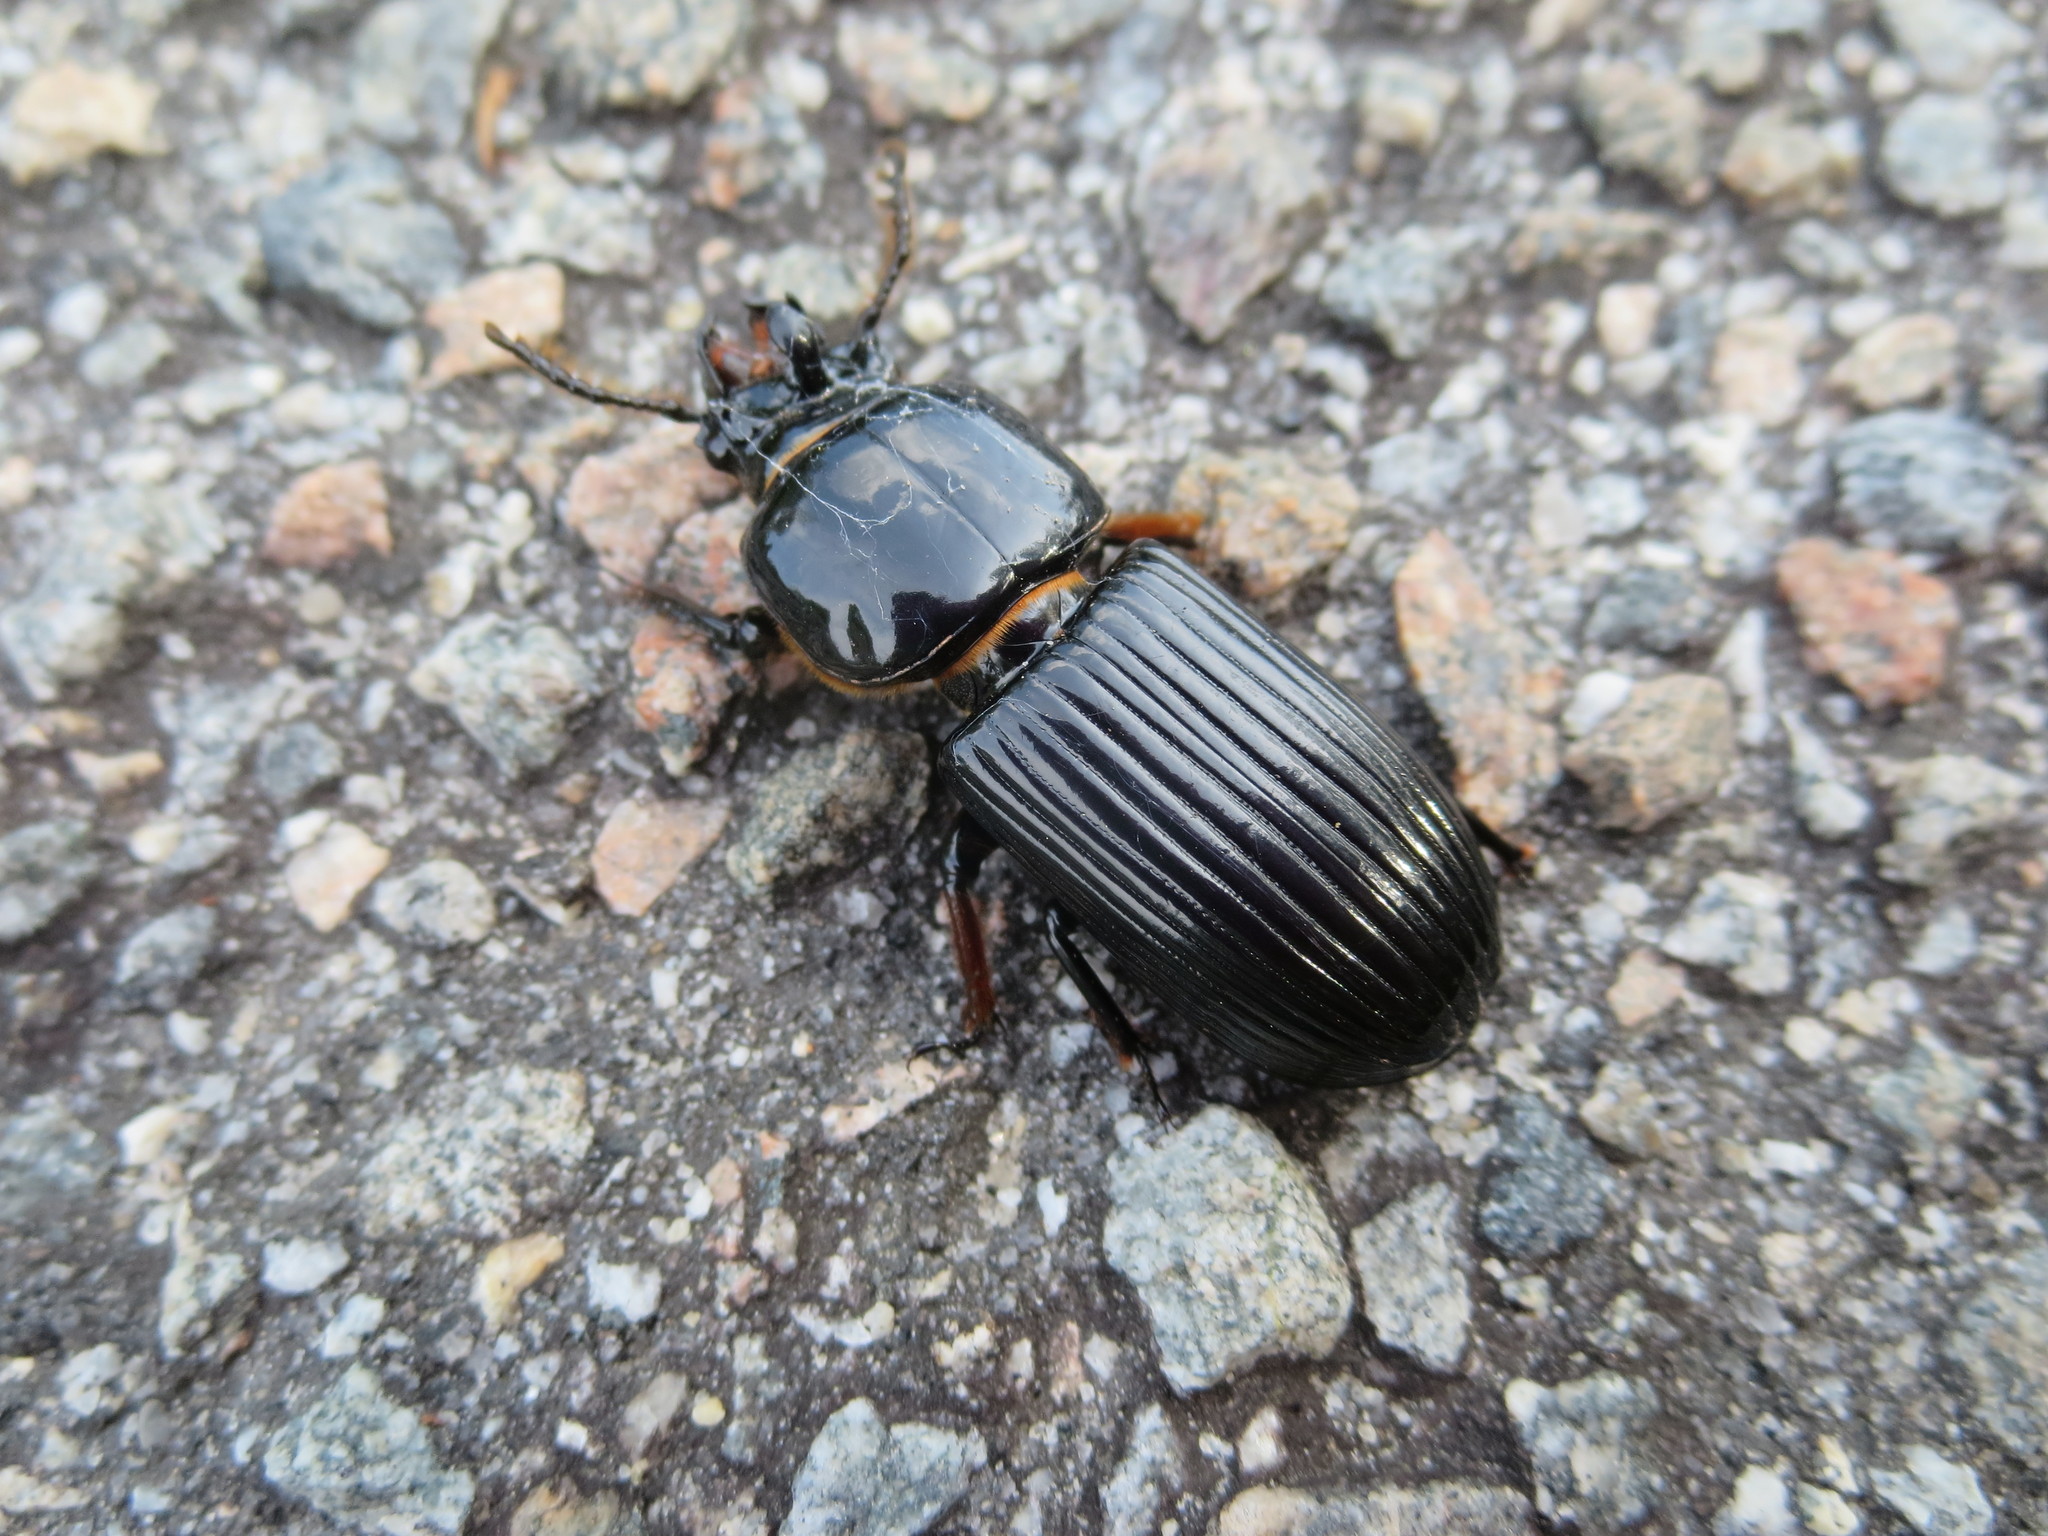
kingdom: Animalia
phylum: Arthropoda
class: Insecta
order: Coleoptera
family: Passalidae
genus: Odontotaenius
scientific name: Odontotaenius disjunctus
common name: Patent leather beetle
